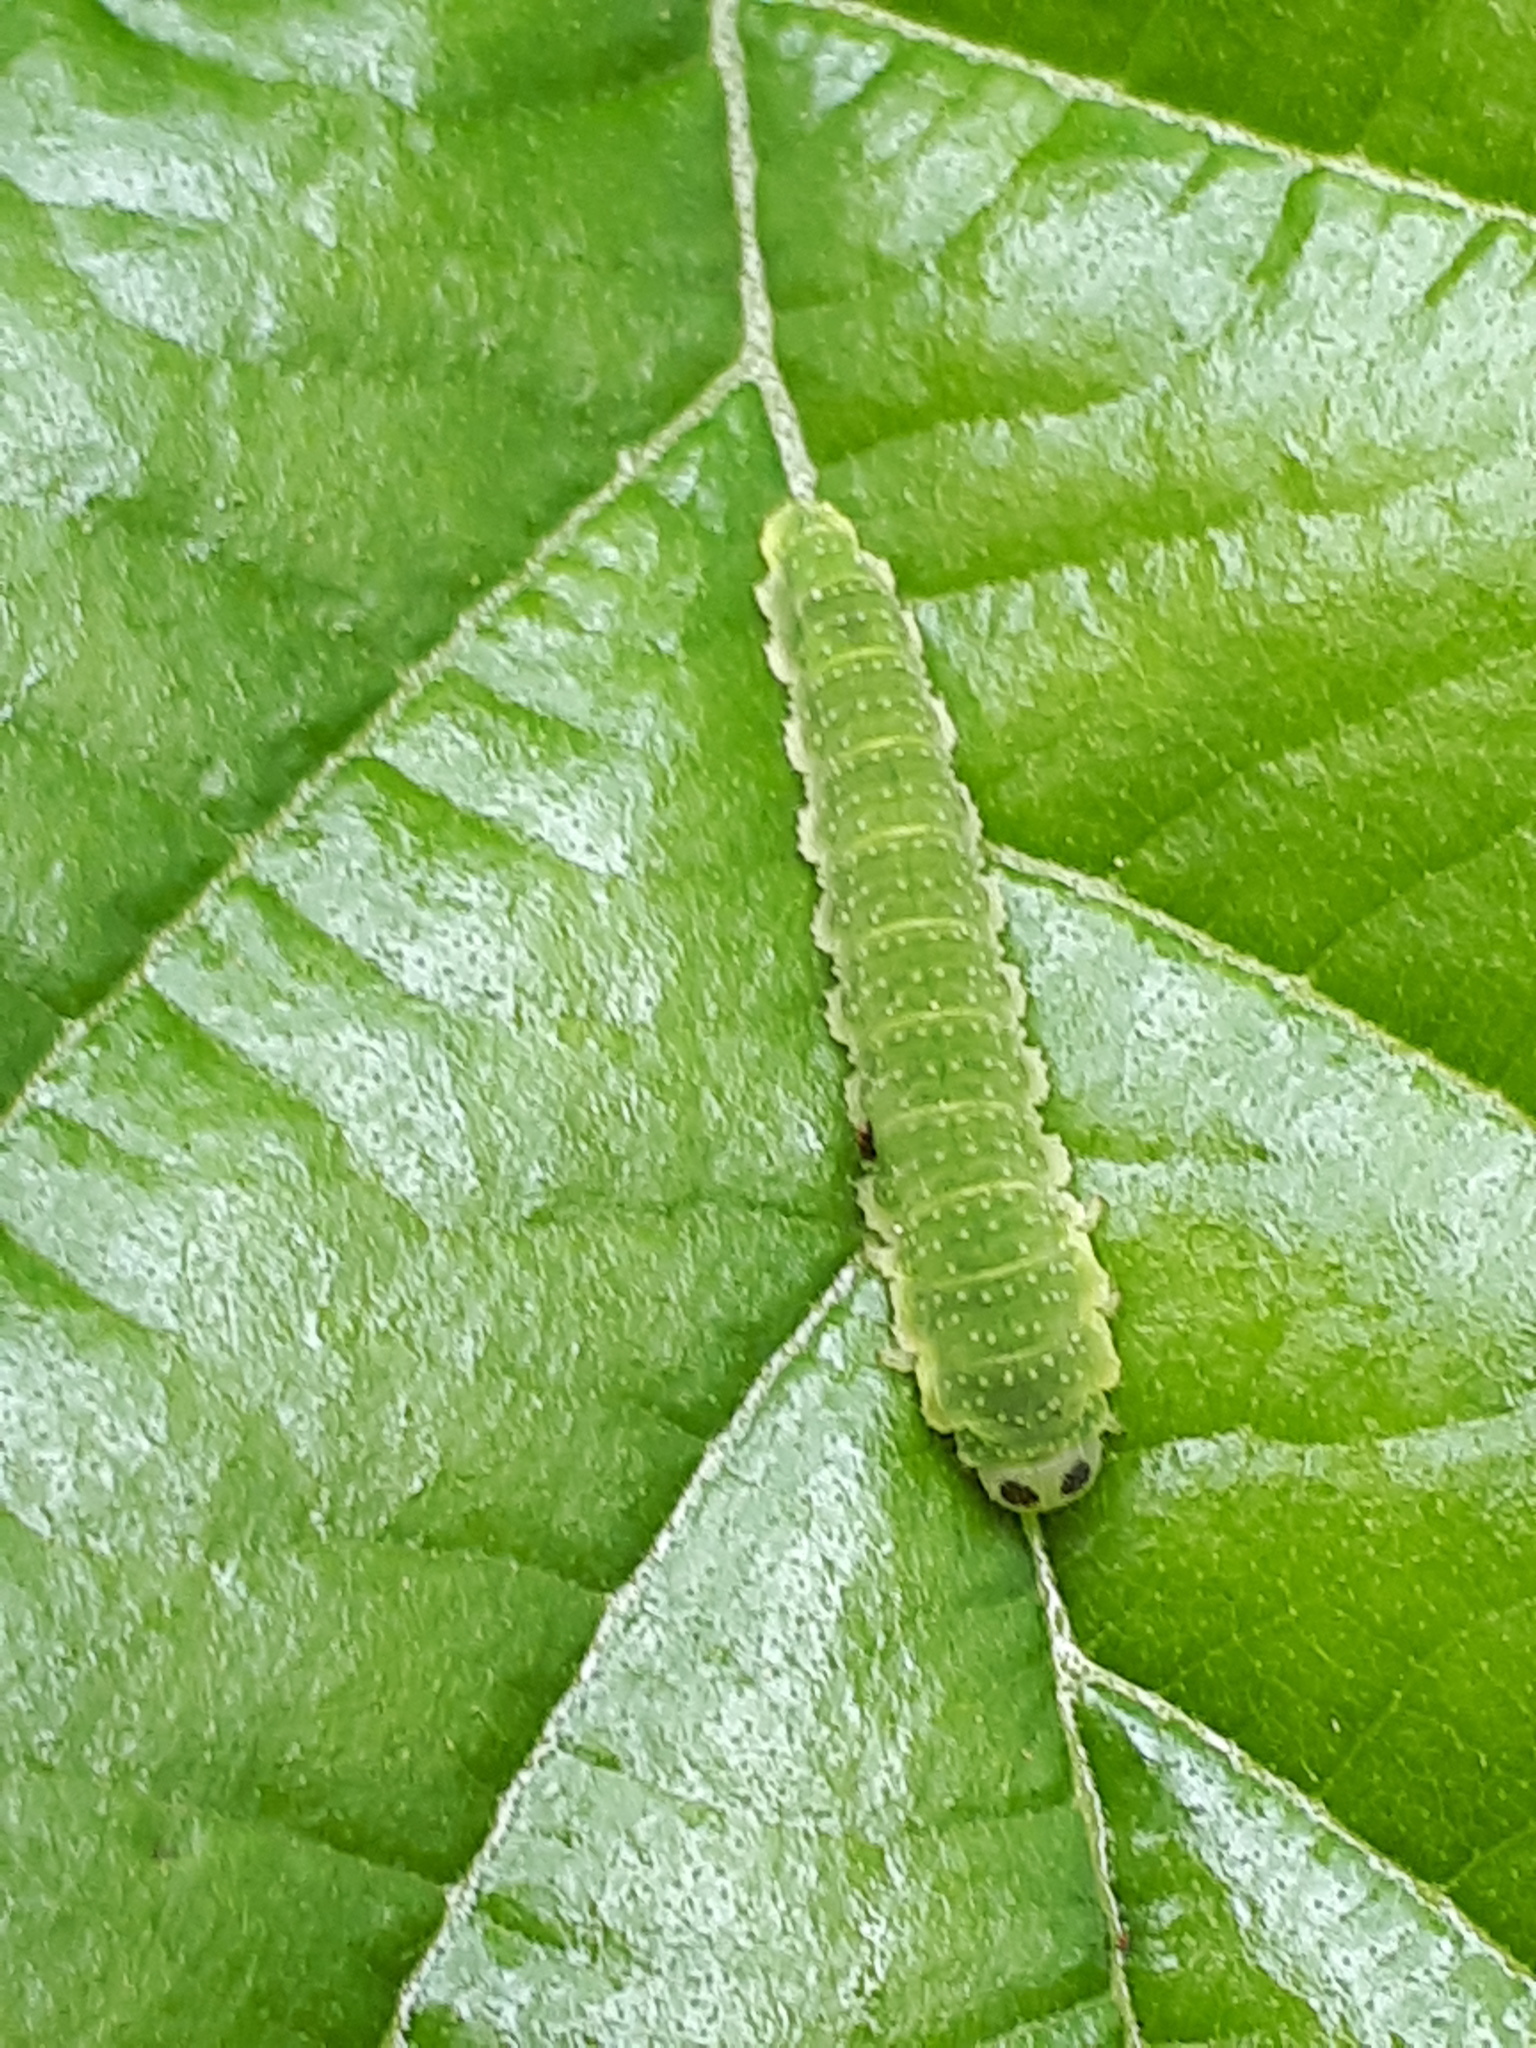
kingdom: Animalia
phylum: Arthropoda
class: Insecta
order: Hymenoptera
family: Tenthredinidae
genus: Nematinus
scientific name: Nematinus steini
